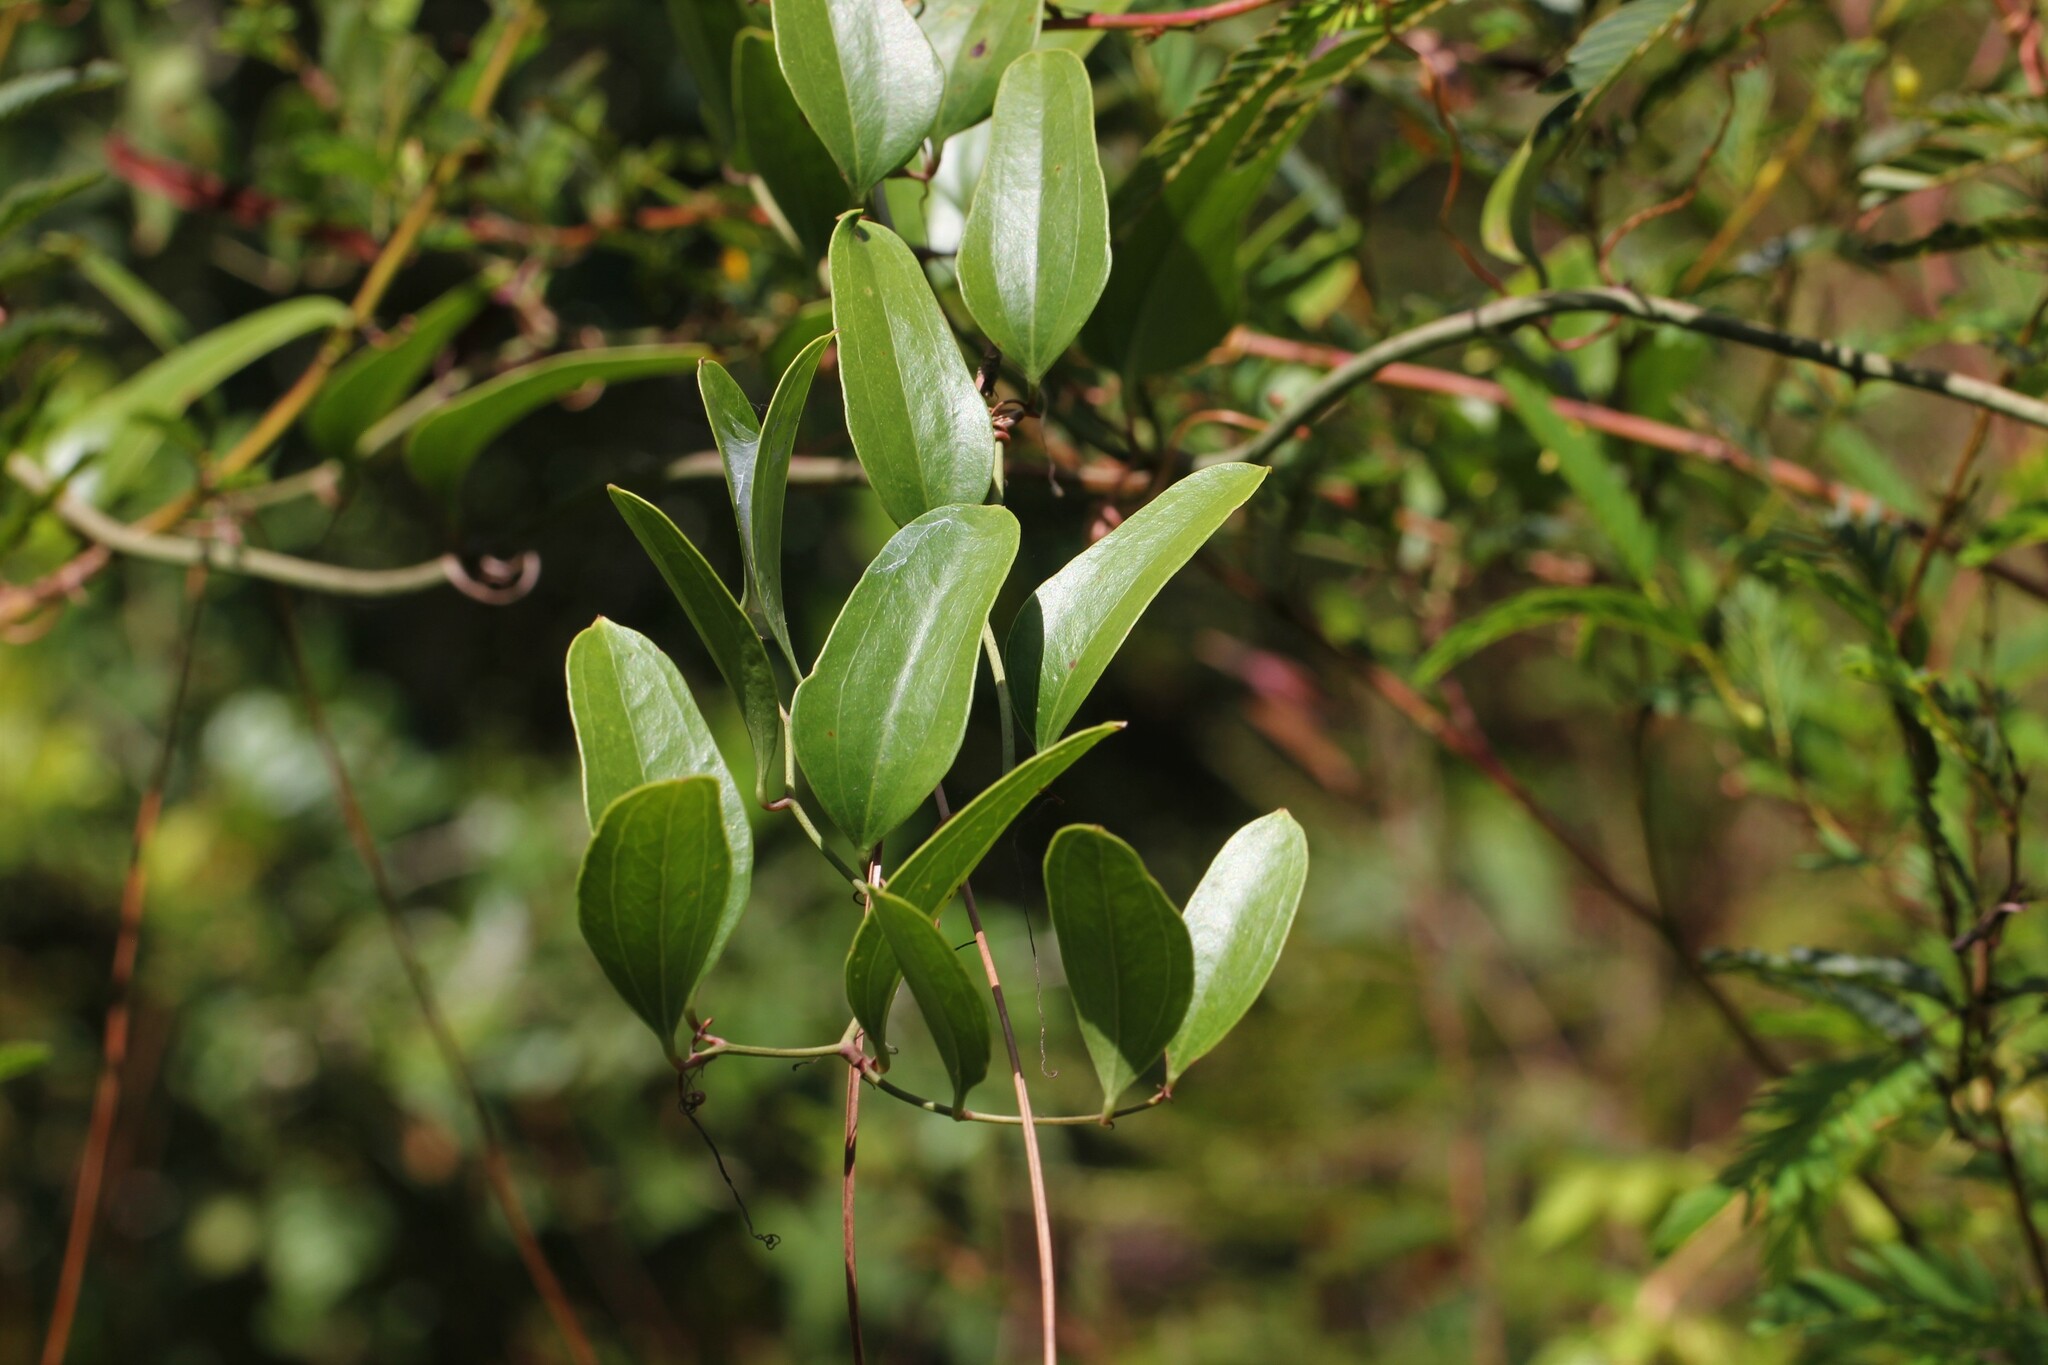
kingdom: Plantae
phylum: Tracheophyta
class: Liliopsida
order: Liliales
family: Smilacaceae
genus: Smilax
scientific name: Smilax auriculata
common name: Wild bamboo
